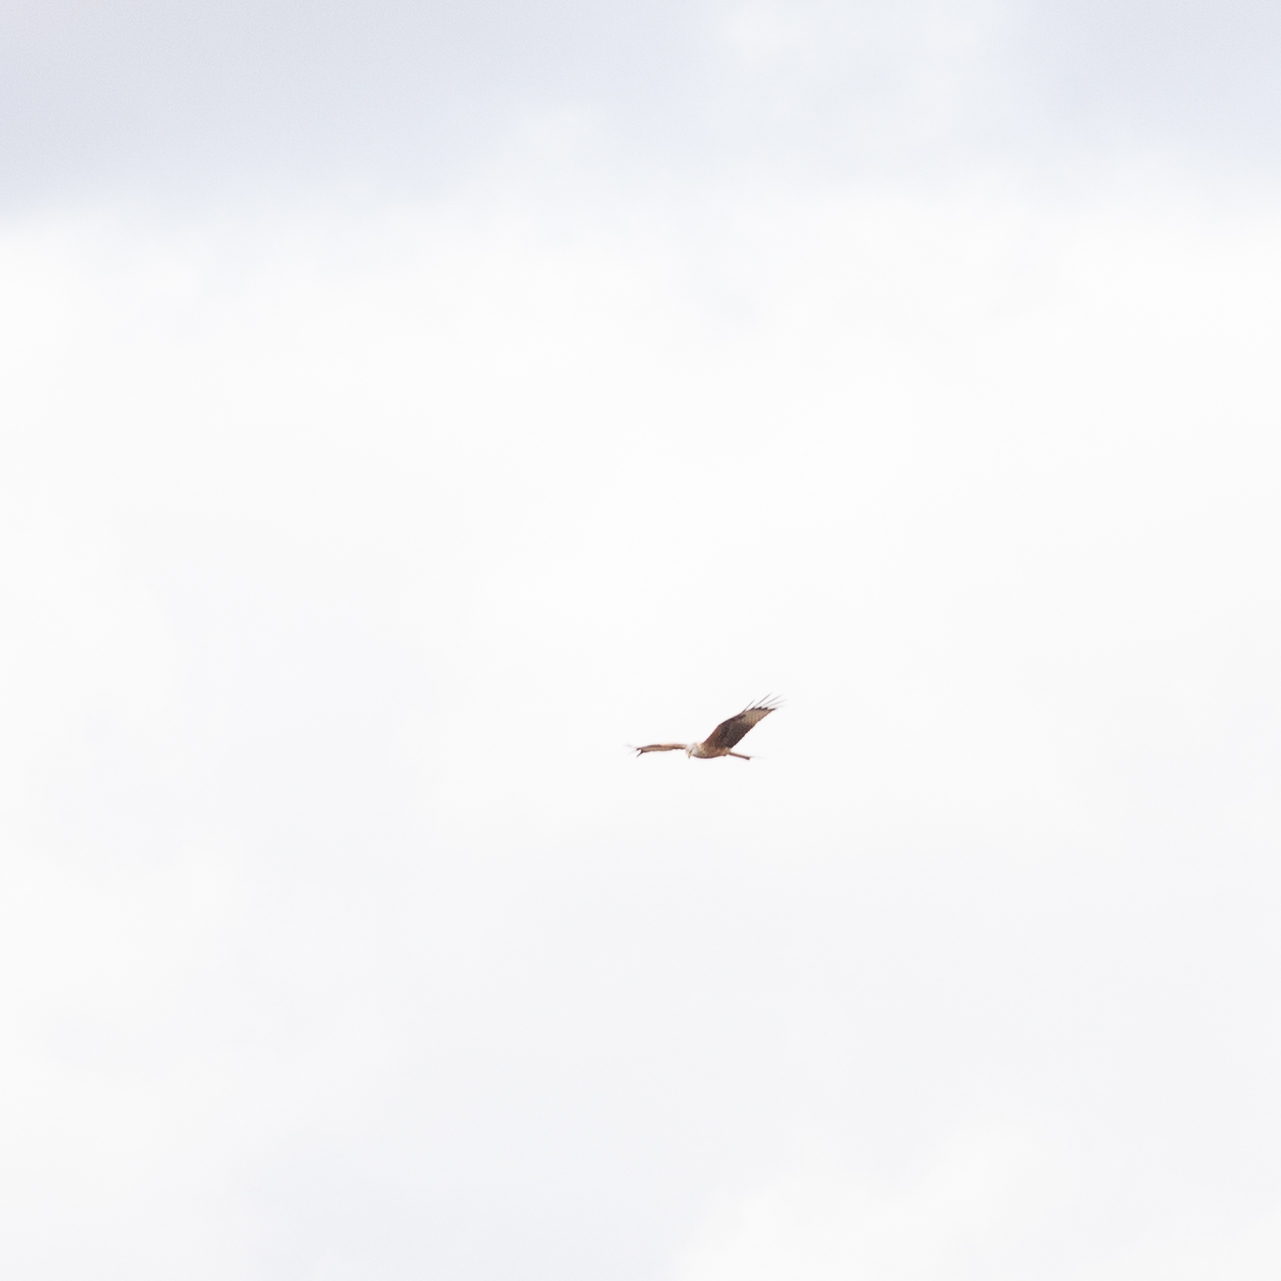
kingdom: Animalia
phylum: Chordata
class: Aves
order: Accipitriformes
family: Accipitridae
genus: Milvus
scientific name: Milvus milvus
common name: Red kite
